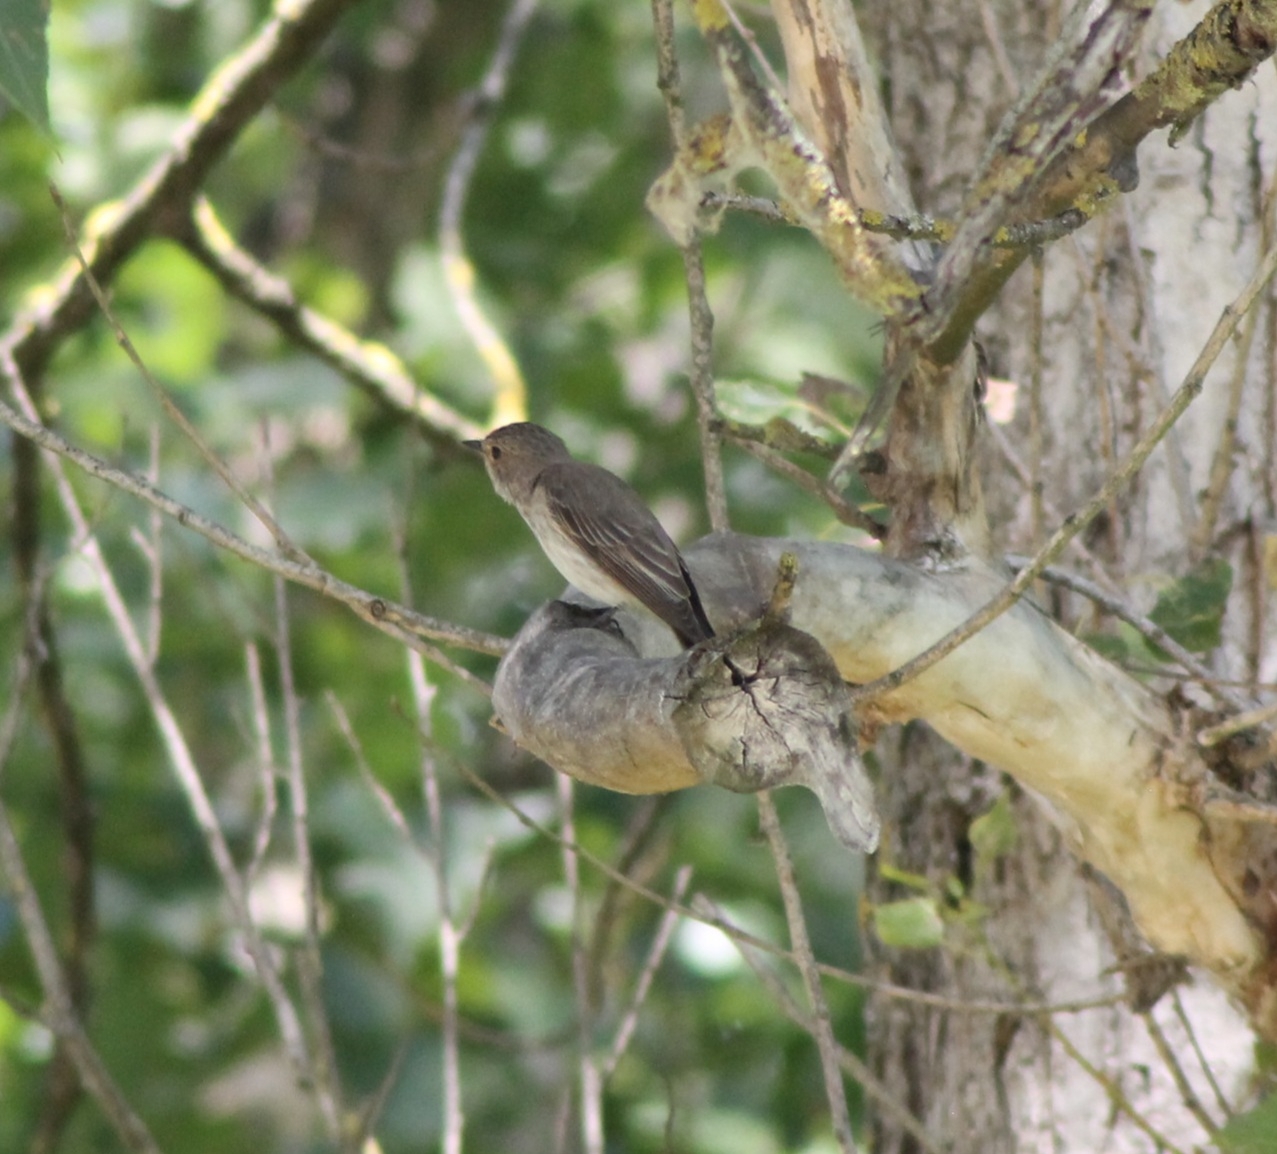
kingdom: Animalia
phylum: Chordata
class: Aves
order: Passeriformes
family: Muscicapidae
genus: Muscicapa
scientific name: Muscicapa striata
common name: Spotted flycatcher
